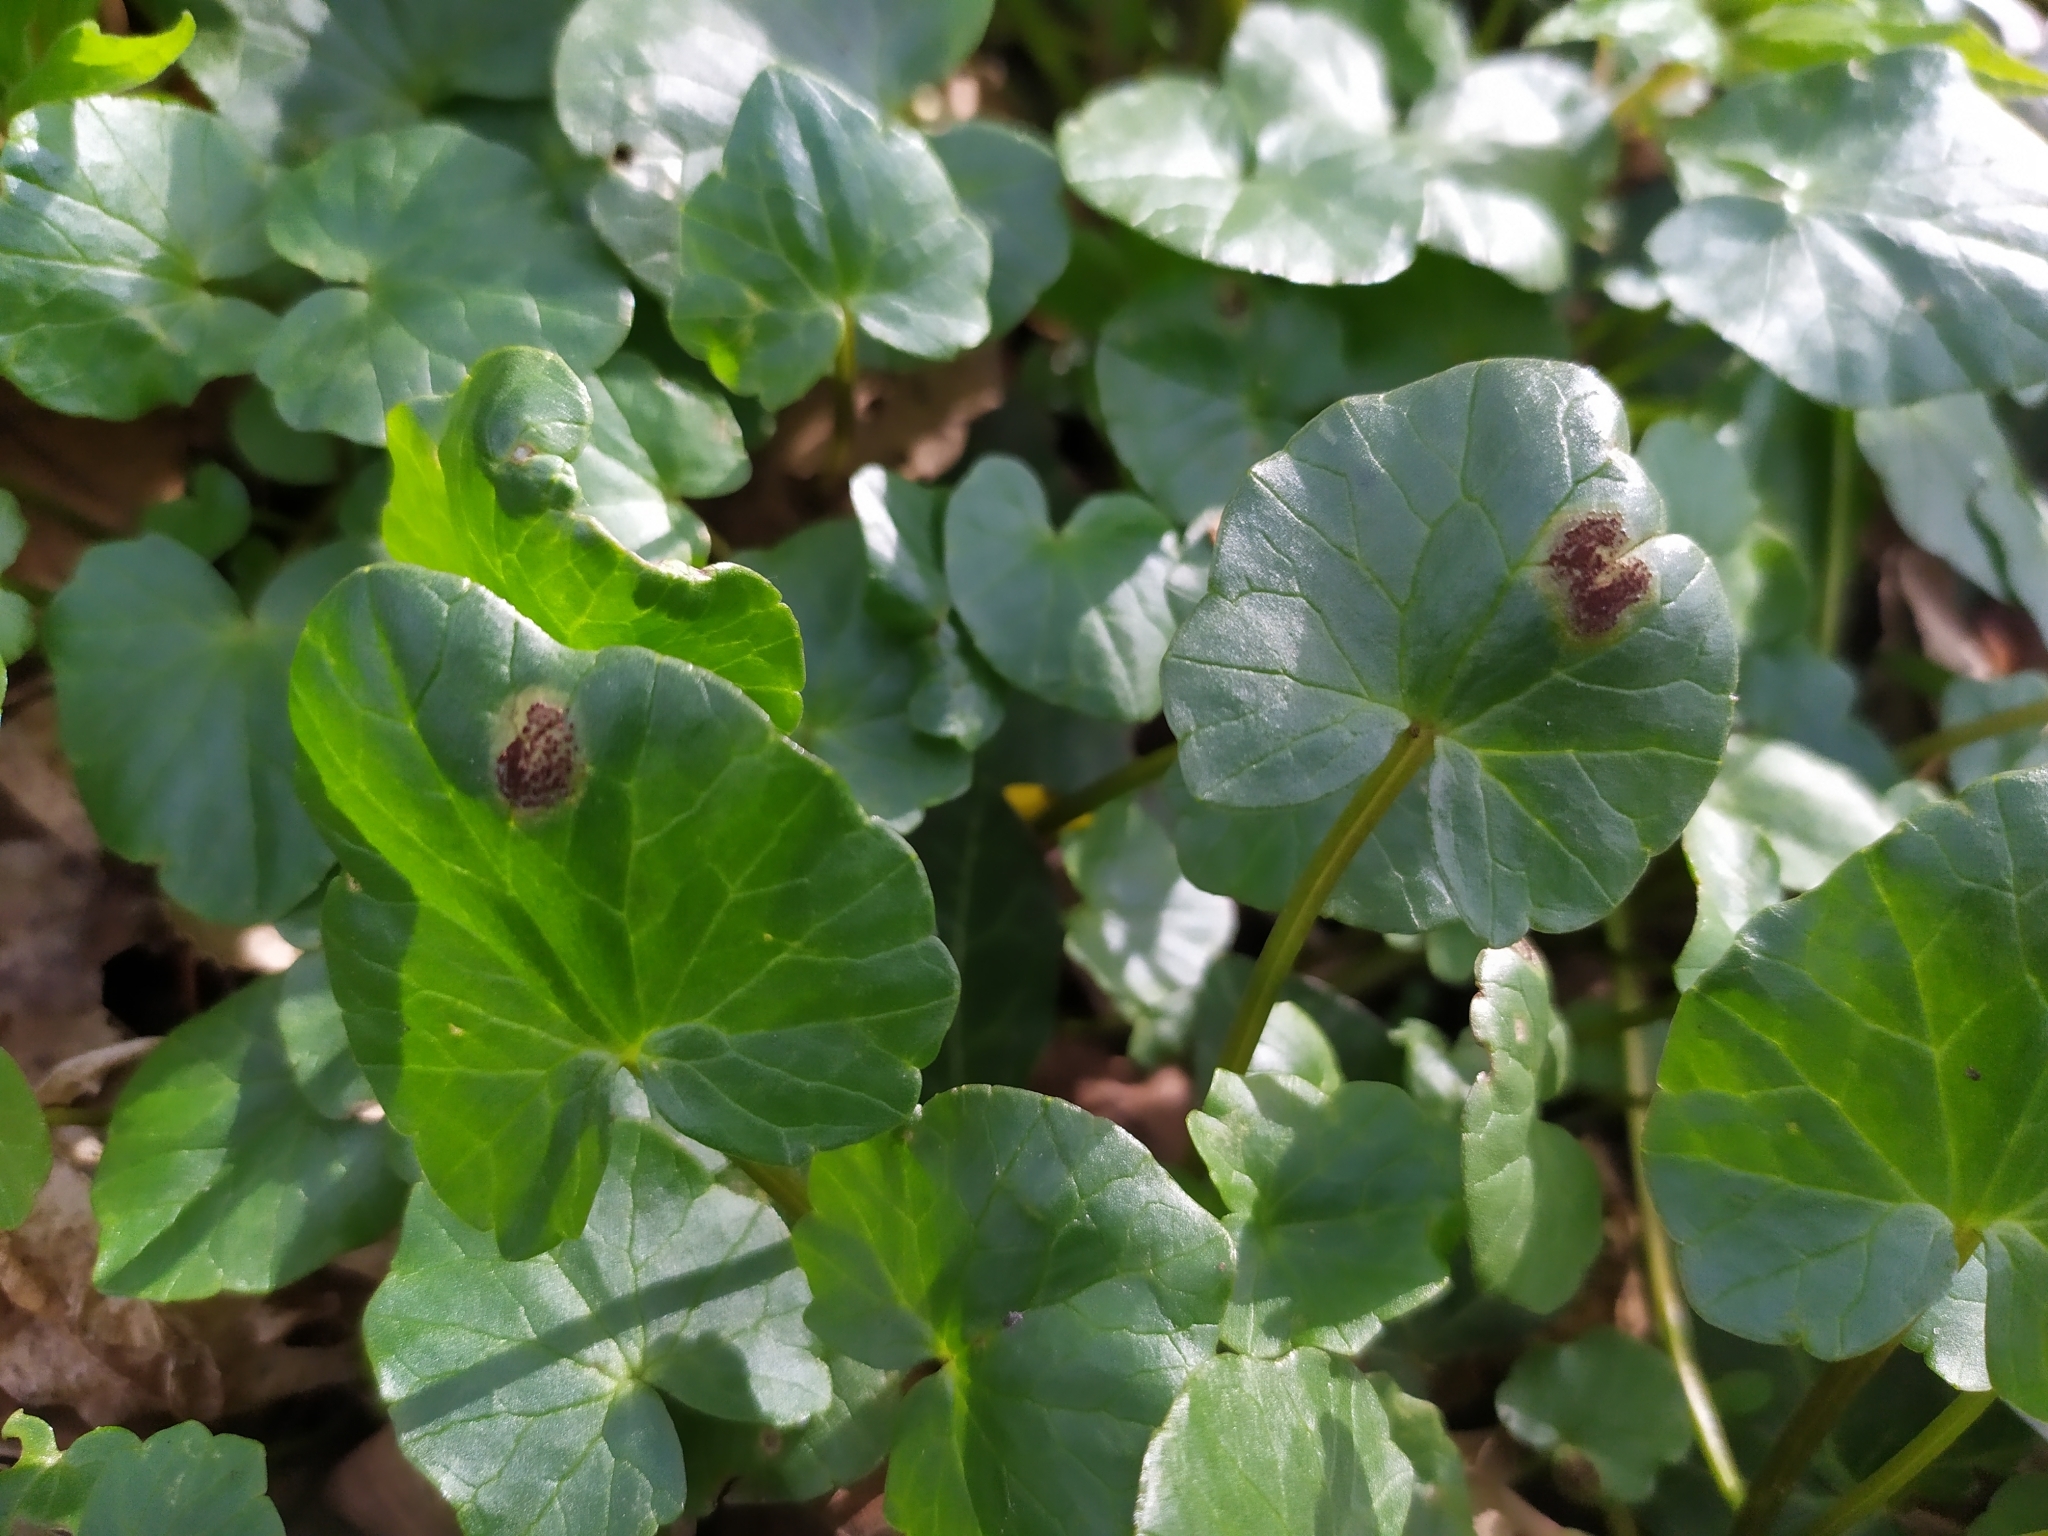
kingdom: Fungi
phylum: Basidiomycota
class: Pucciniomycetes
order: Pucciniales
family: Pucciniaceae
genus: Uromyces
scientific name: Uromyces ficariae
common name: Bitter chocolate rust
